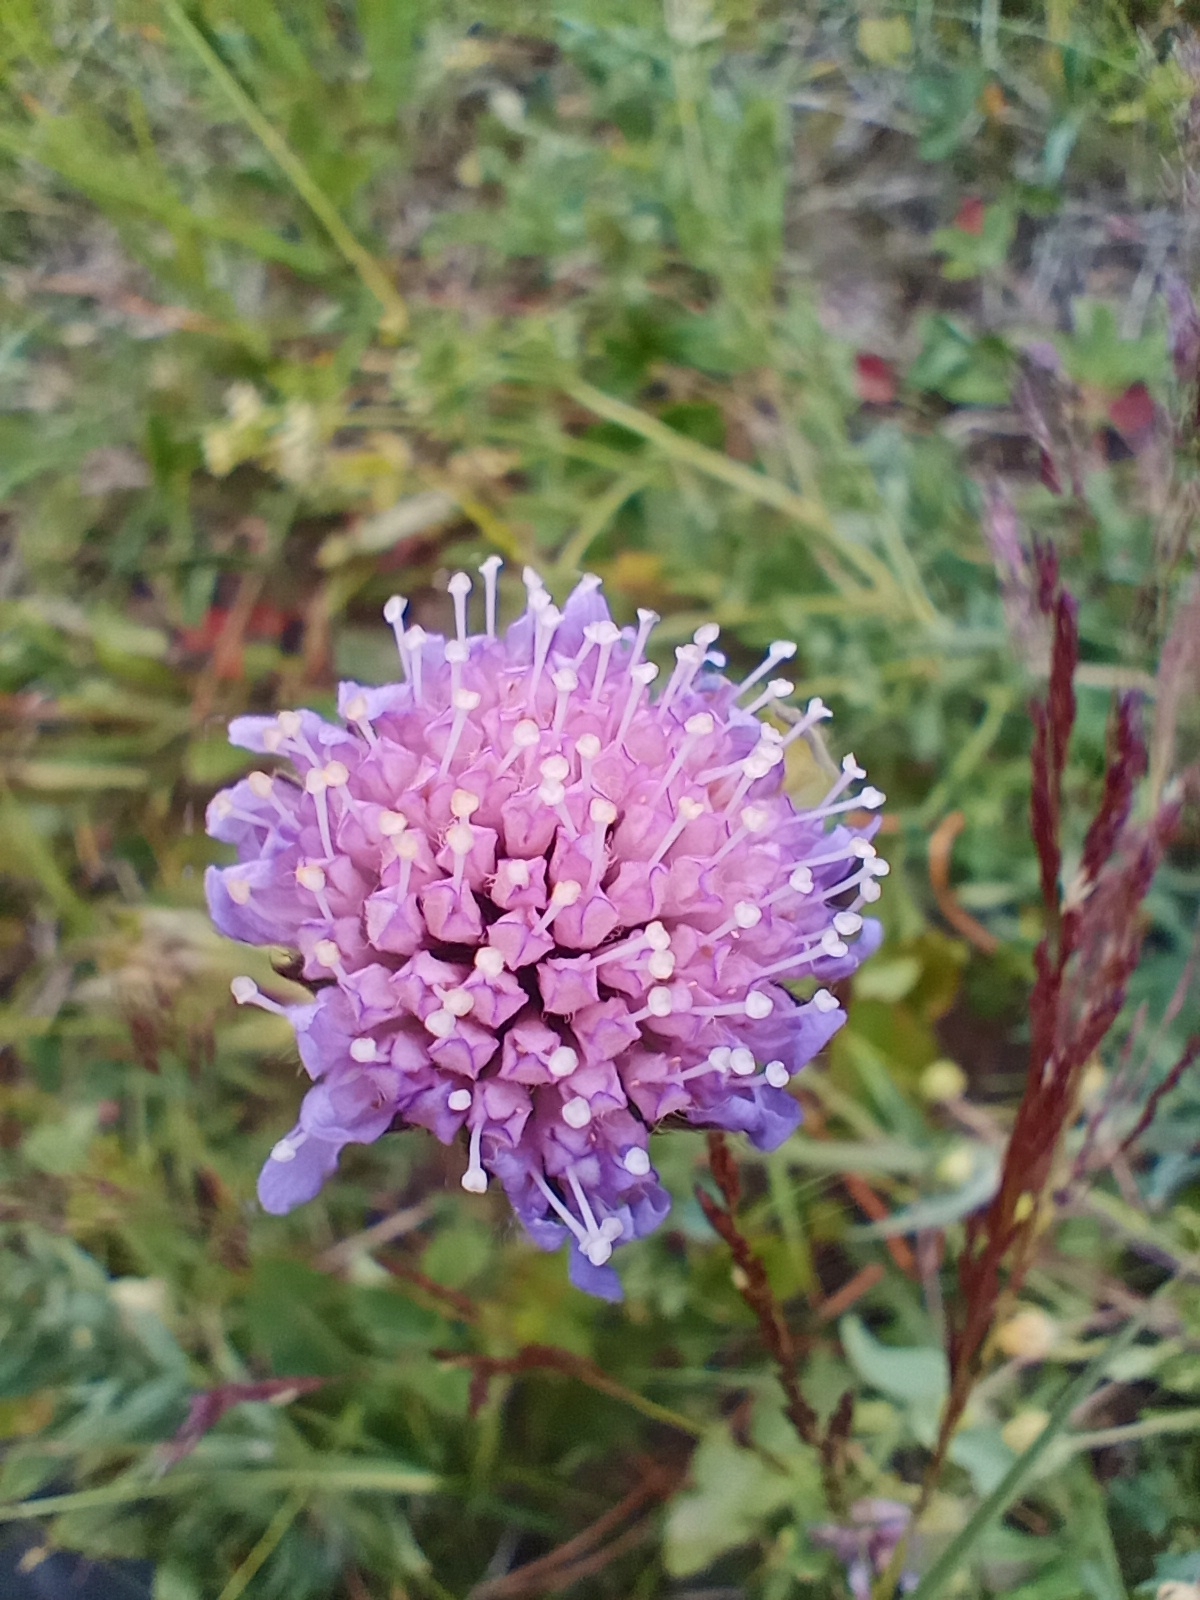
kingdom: Plantae
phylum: Tracheophyta
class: Magnoliopsida
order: Dipsacales
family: Caprifoliaceae
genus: Knautia
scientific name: Knautia arvensis
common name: Field scabiosa
